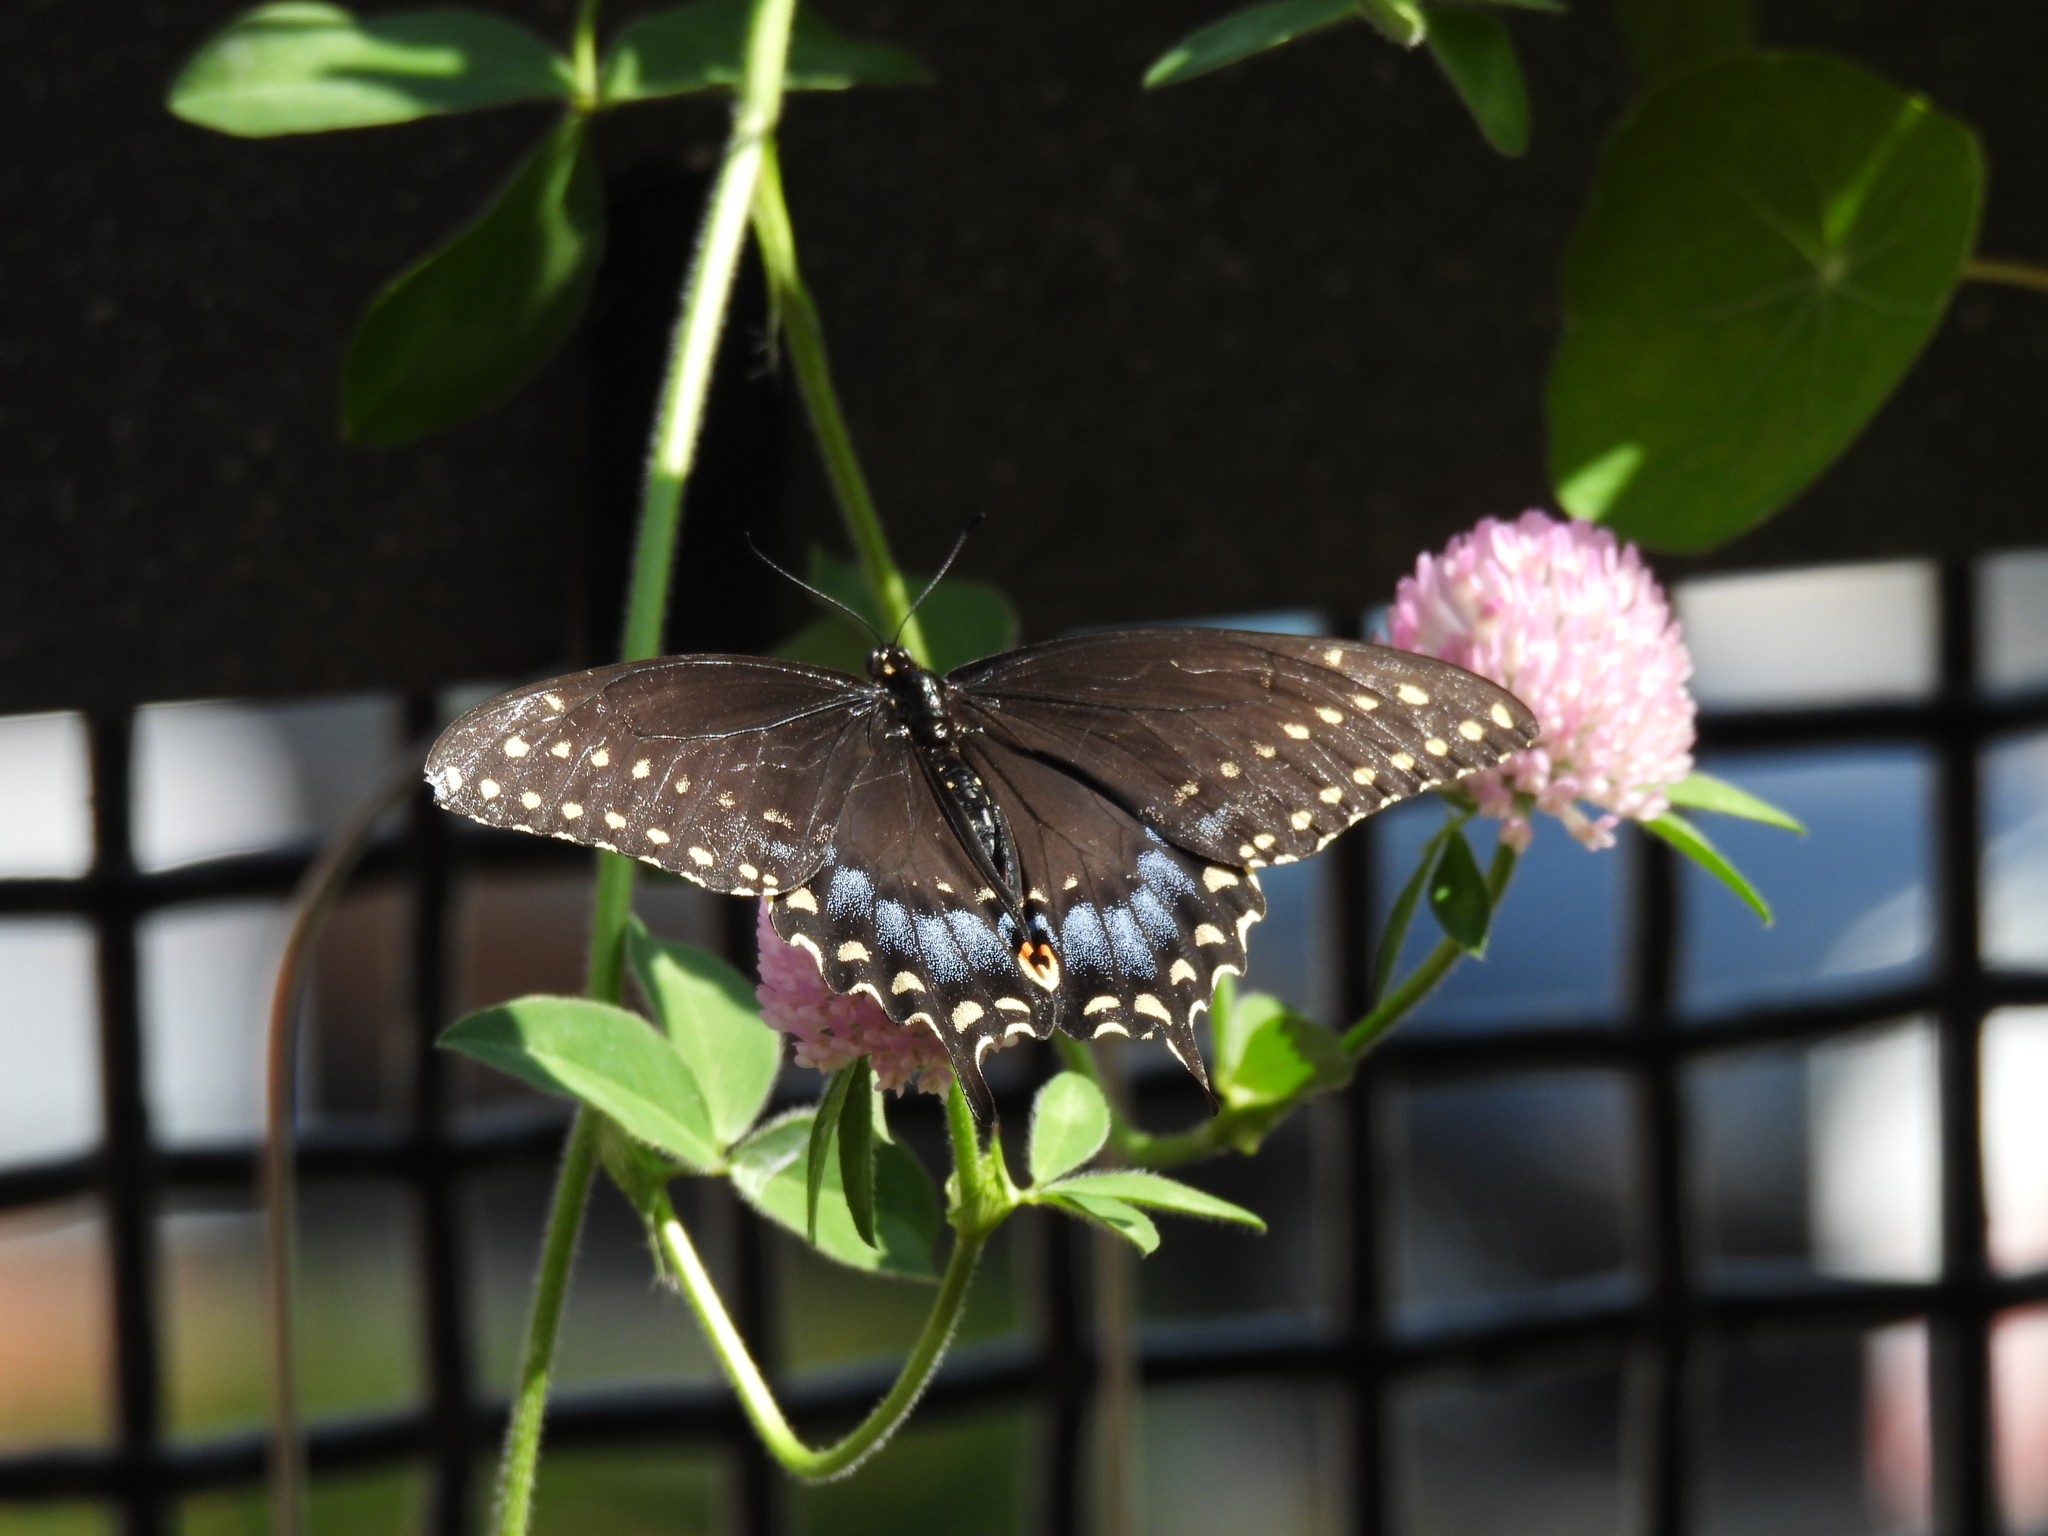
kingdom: Animalia
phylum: Arthropoda
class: Insecta
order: Lepidoptera
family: Papilionidae
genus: Papilio
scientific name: Papilio polyxenes
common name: Black swallowtail
